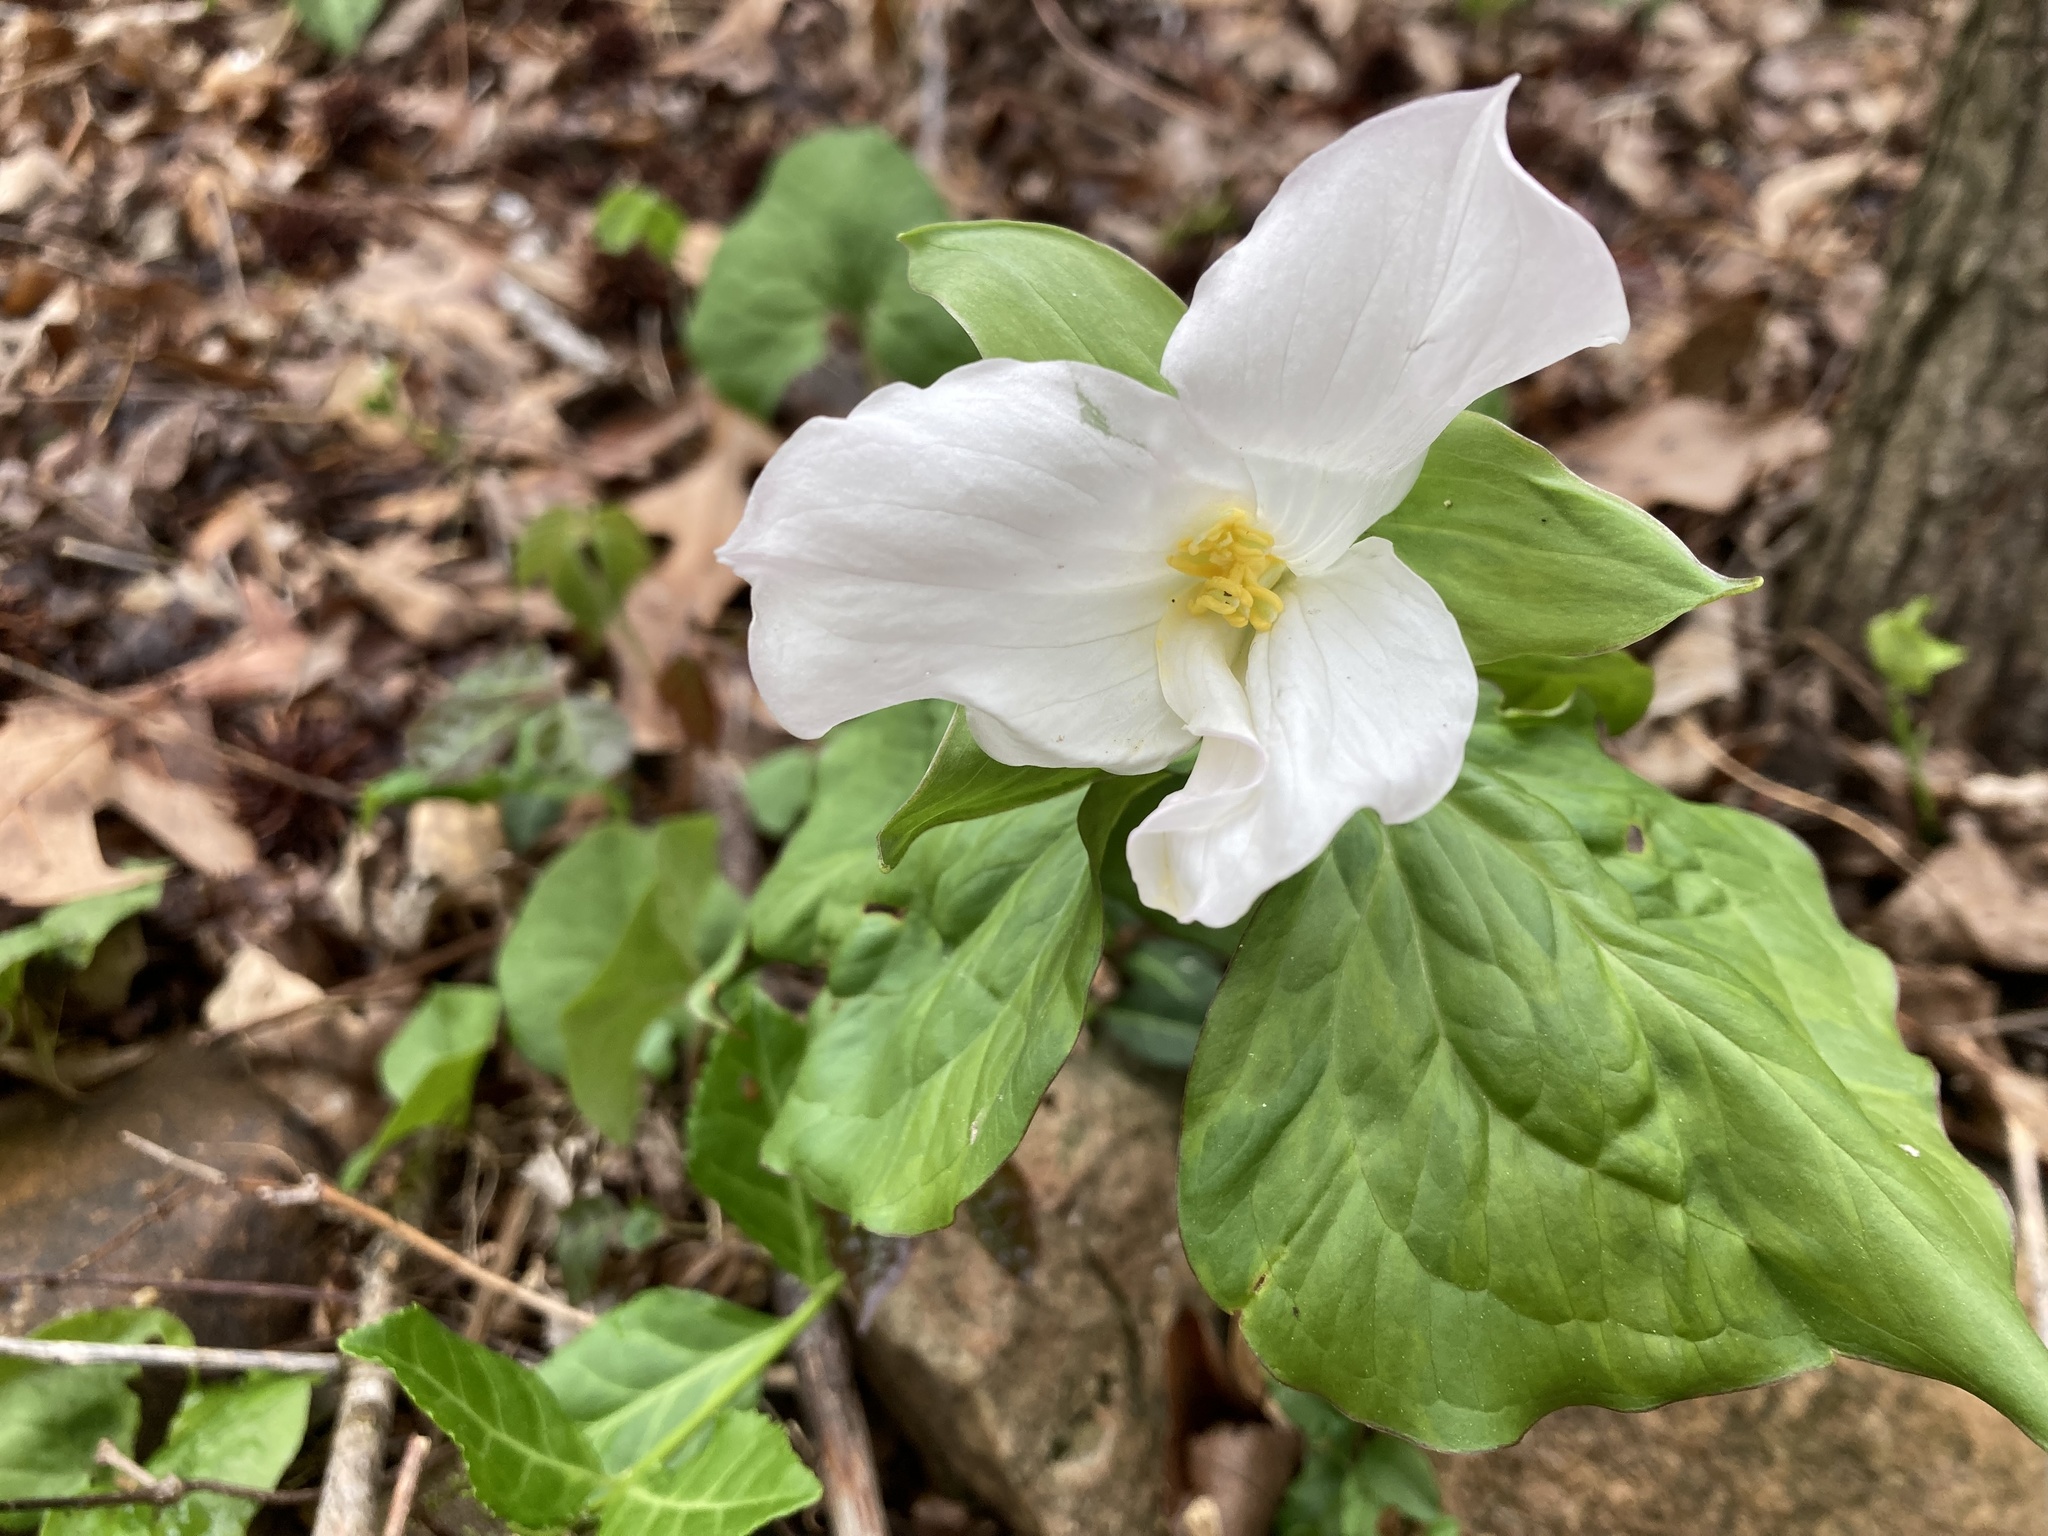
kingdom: Plantae
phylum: Tracheophyta
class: Liliopsida
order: Liliales
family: Melanthiaceae
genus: Trillium
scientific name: Trillium grandiflorum
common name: Great white trillium
